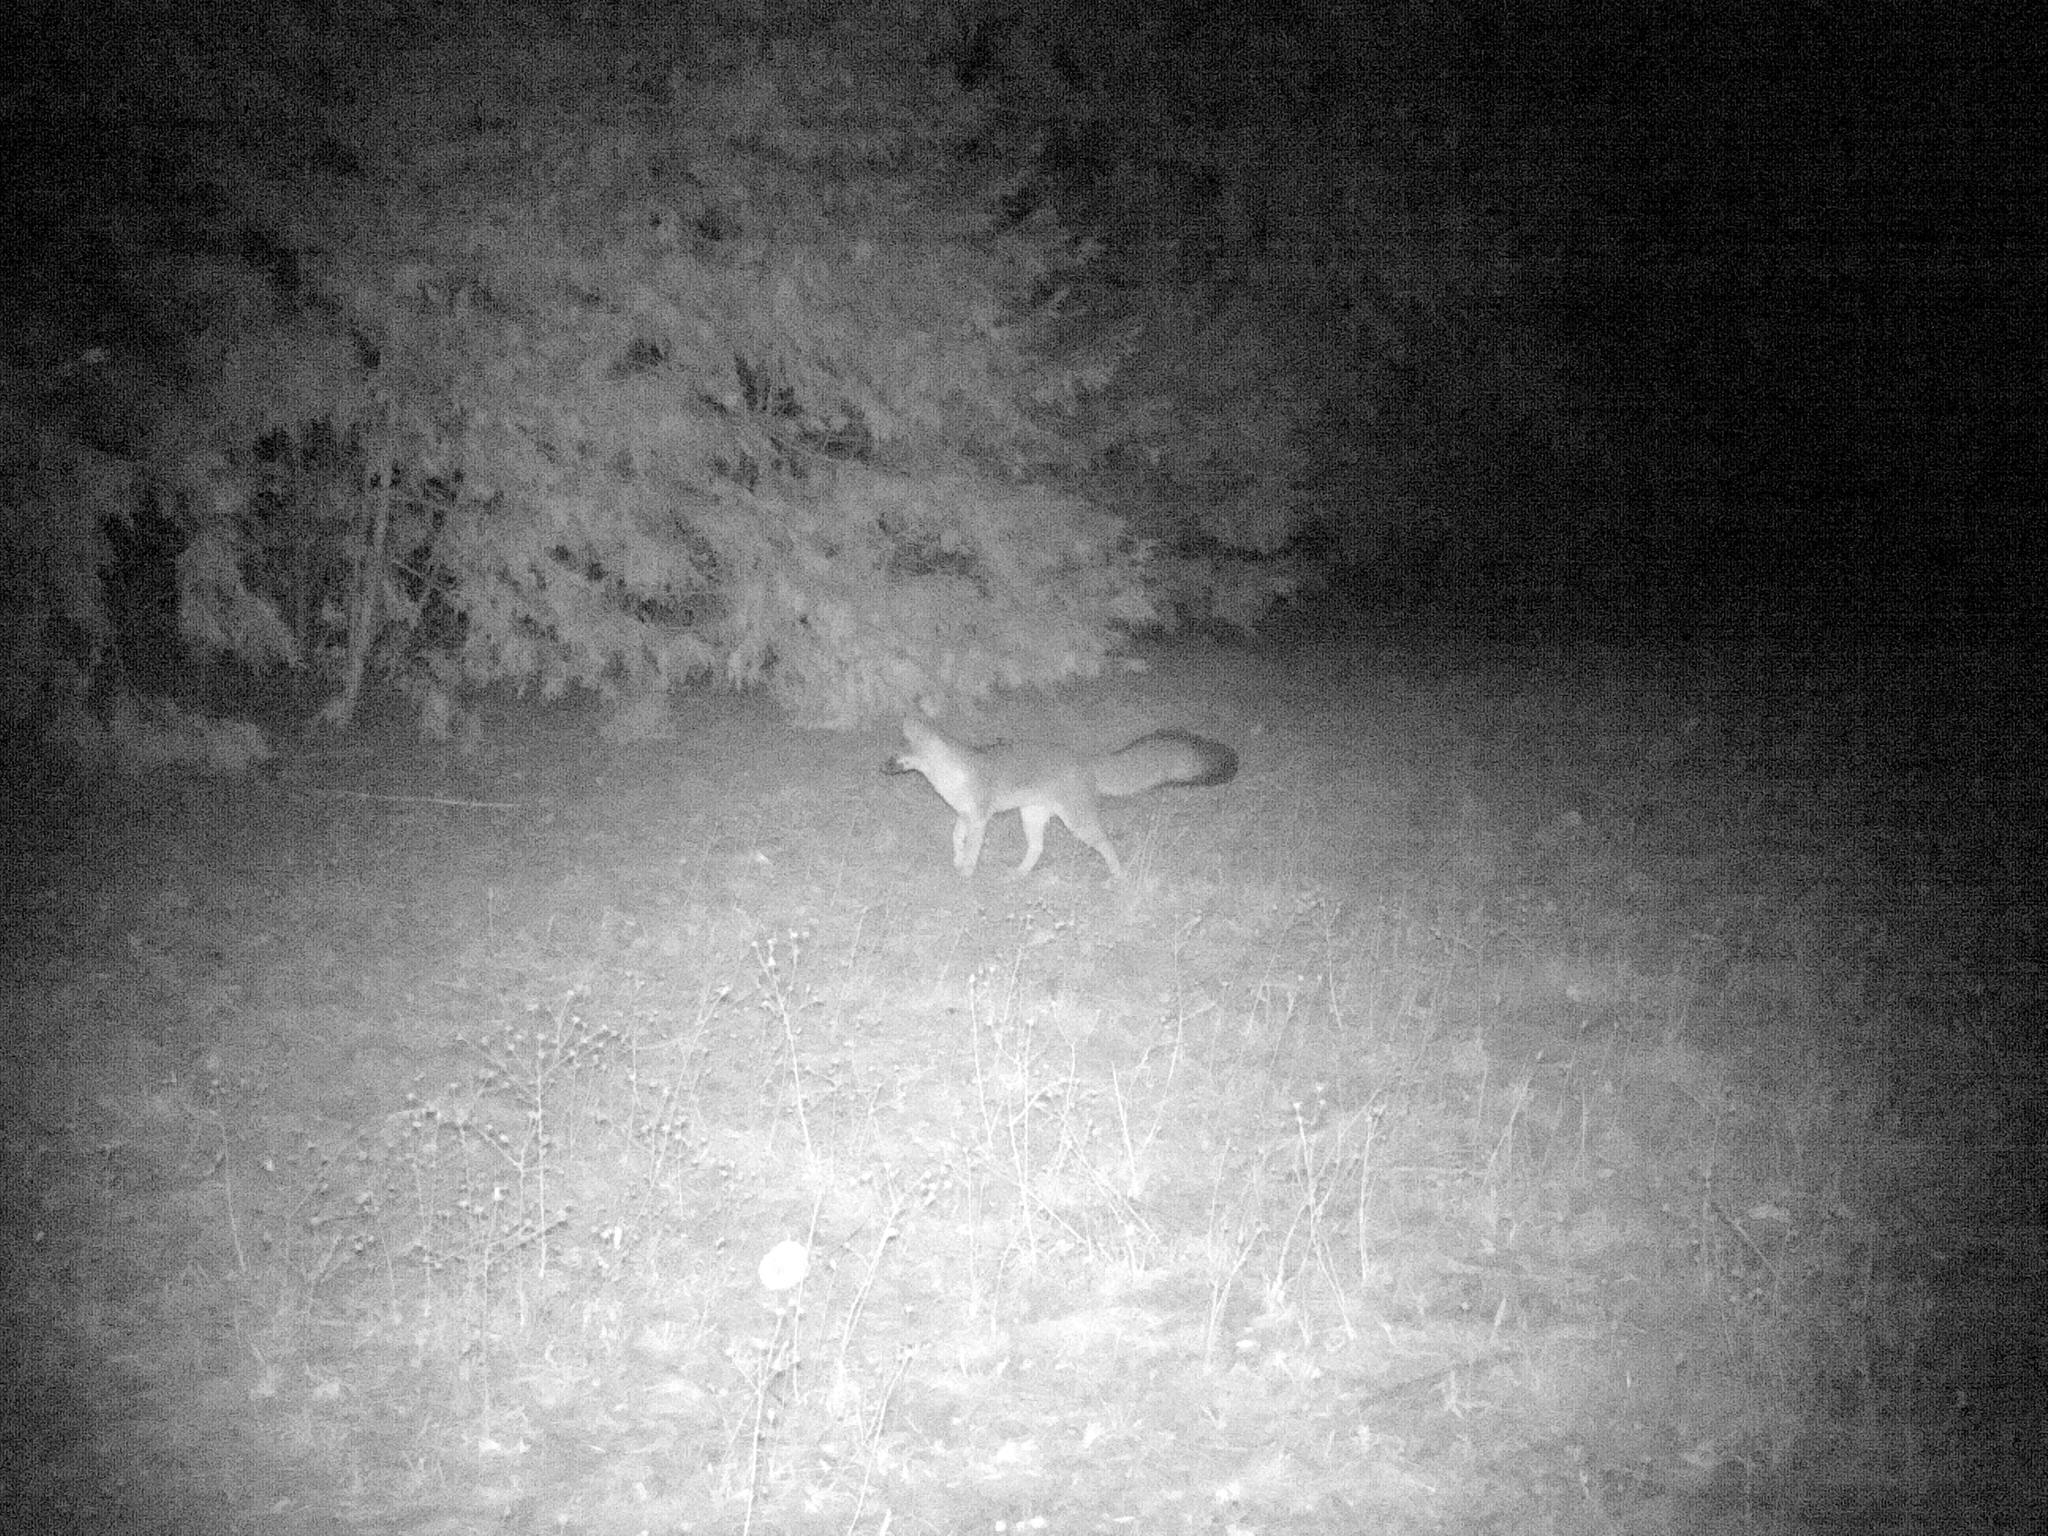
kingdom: Animalia
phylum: Chordata
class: Mammalia
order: Carnivora
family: Canidae
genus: Urocyon
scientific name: Urocyon cinereoargenteus
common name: Gray fox
